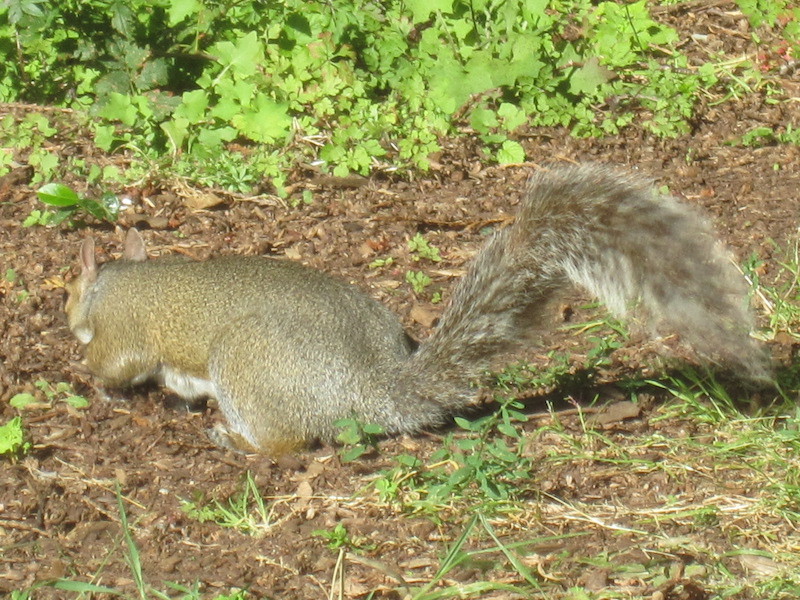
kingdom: Animalia
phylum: Chordata
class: Mammalia
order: Rodentia
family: Sciuridae
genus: Sciurus
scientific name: Sciurus carolinensis
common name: Eastern gray squirrel
